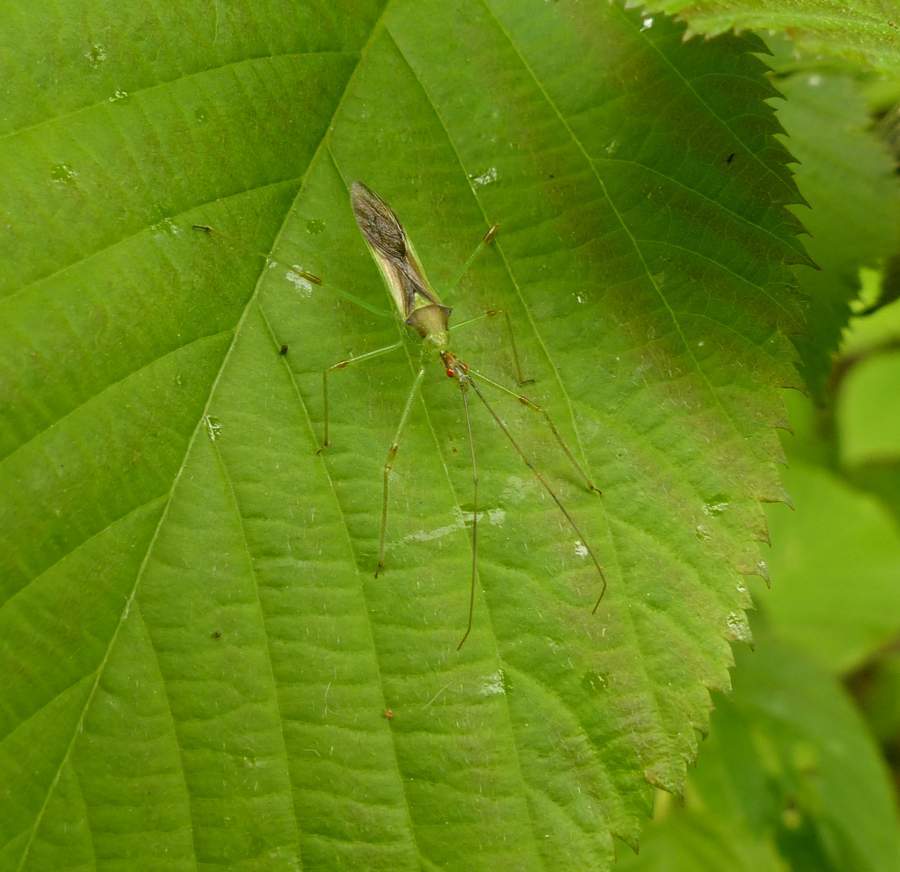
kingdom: Animalia
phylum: Arthropoda
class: Insecta
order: Hemiptera
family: Reduviidae
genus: Zelus
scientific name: Zelus luridus
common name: Pale green assassin bug
